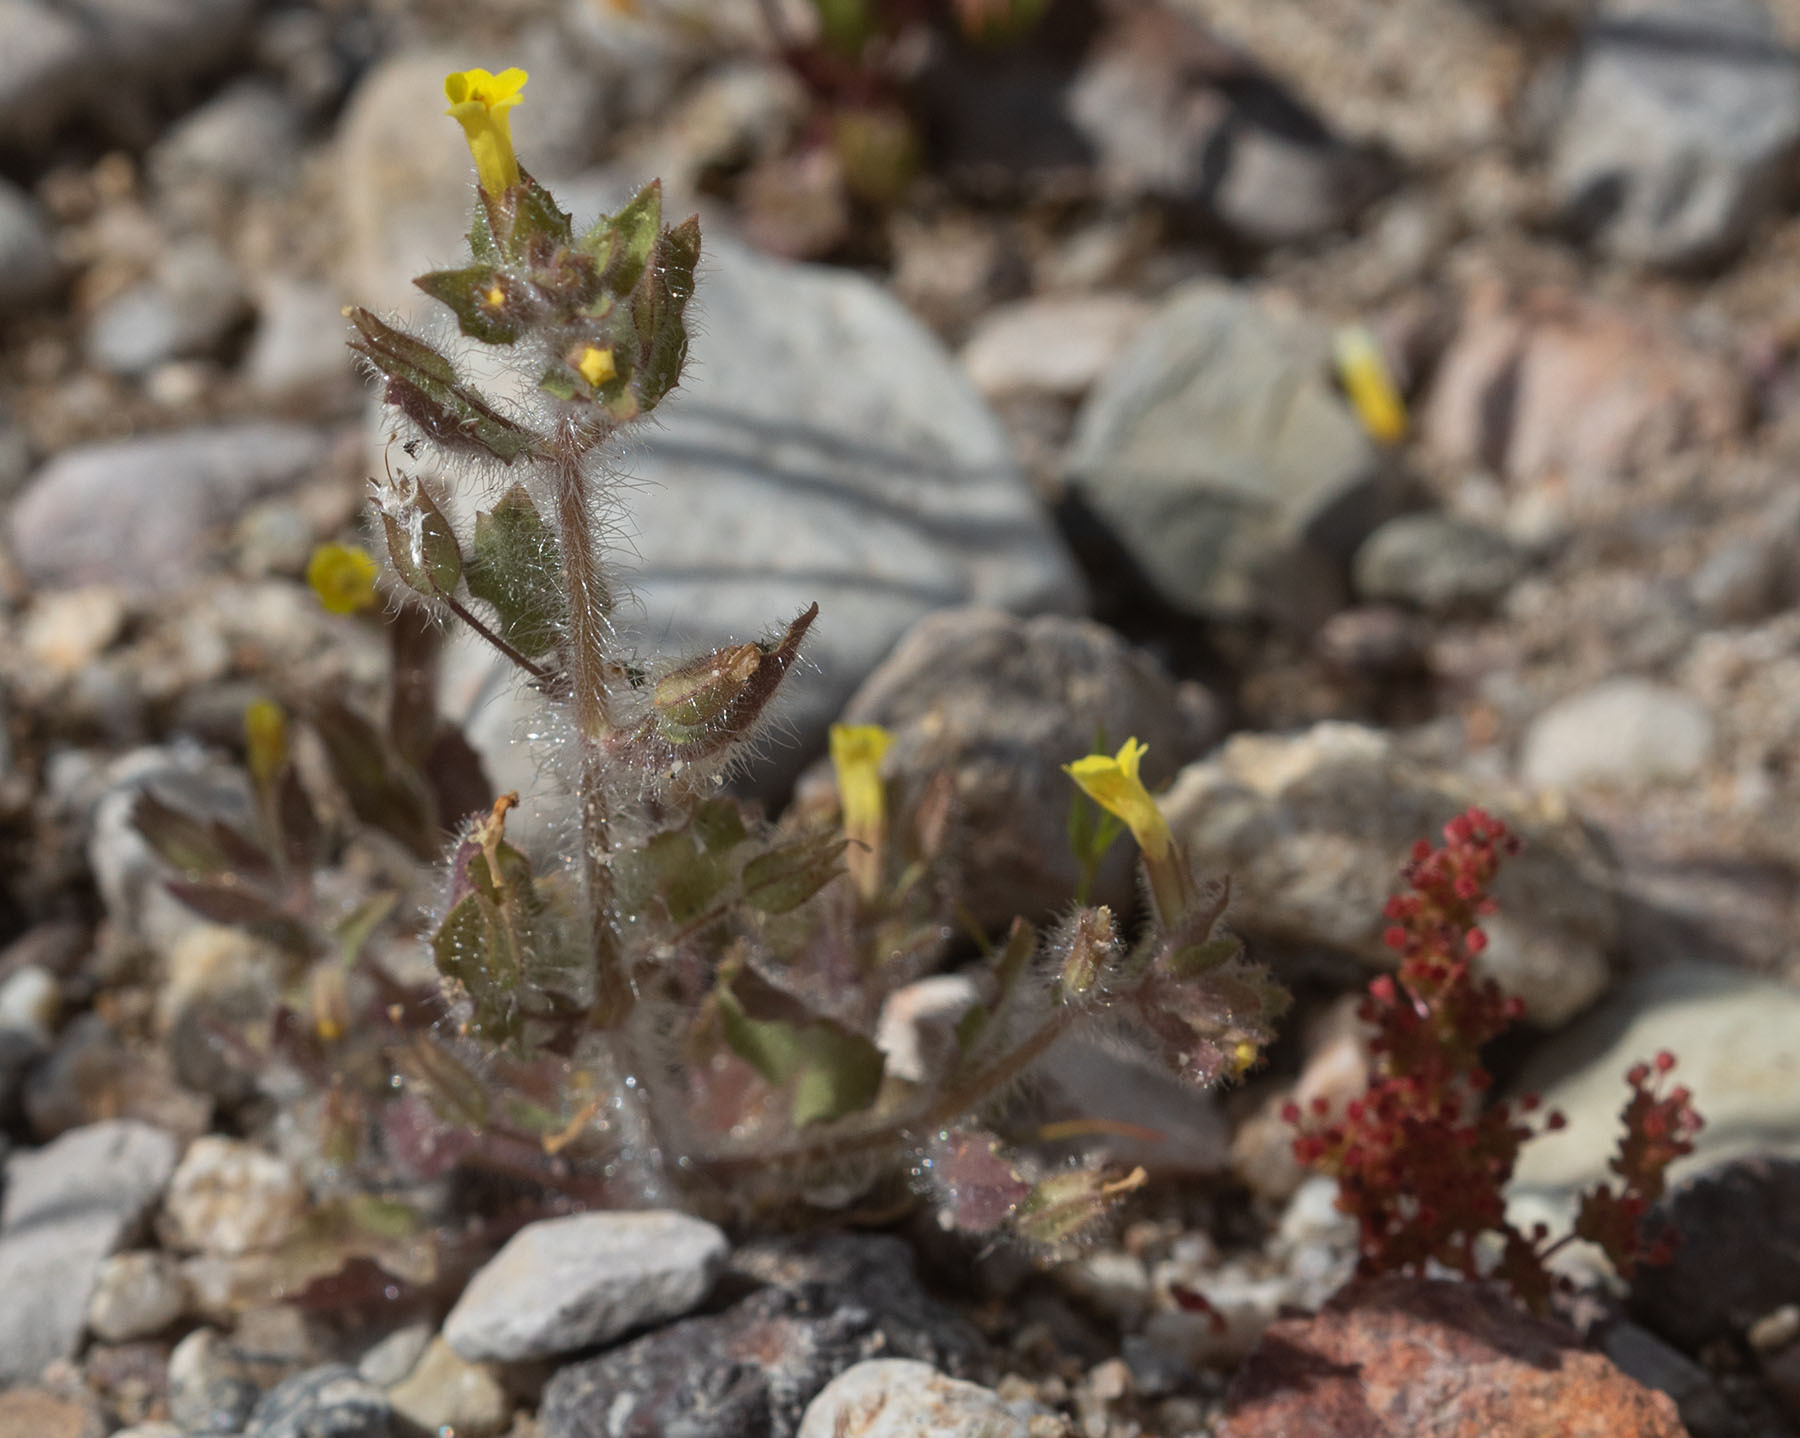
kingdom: Plantae
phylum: Tracheophyta
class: Magnoliopsida
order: Lamiales
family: Phrymaceae
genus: Erythranthe
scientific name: Erythranthe floribunda
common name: Floriferous monkeyflower
